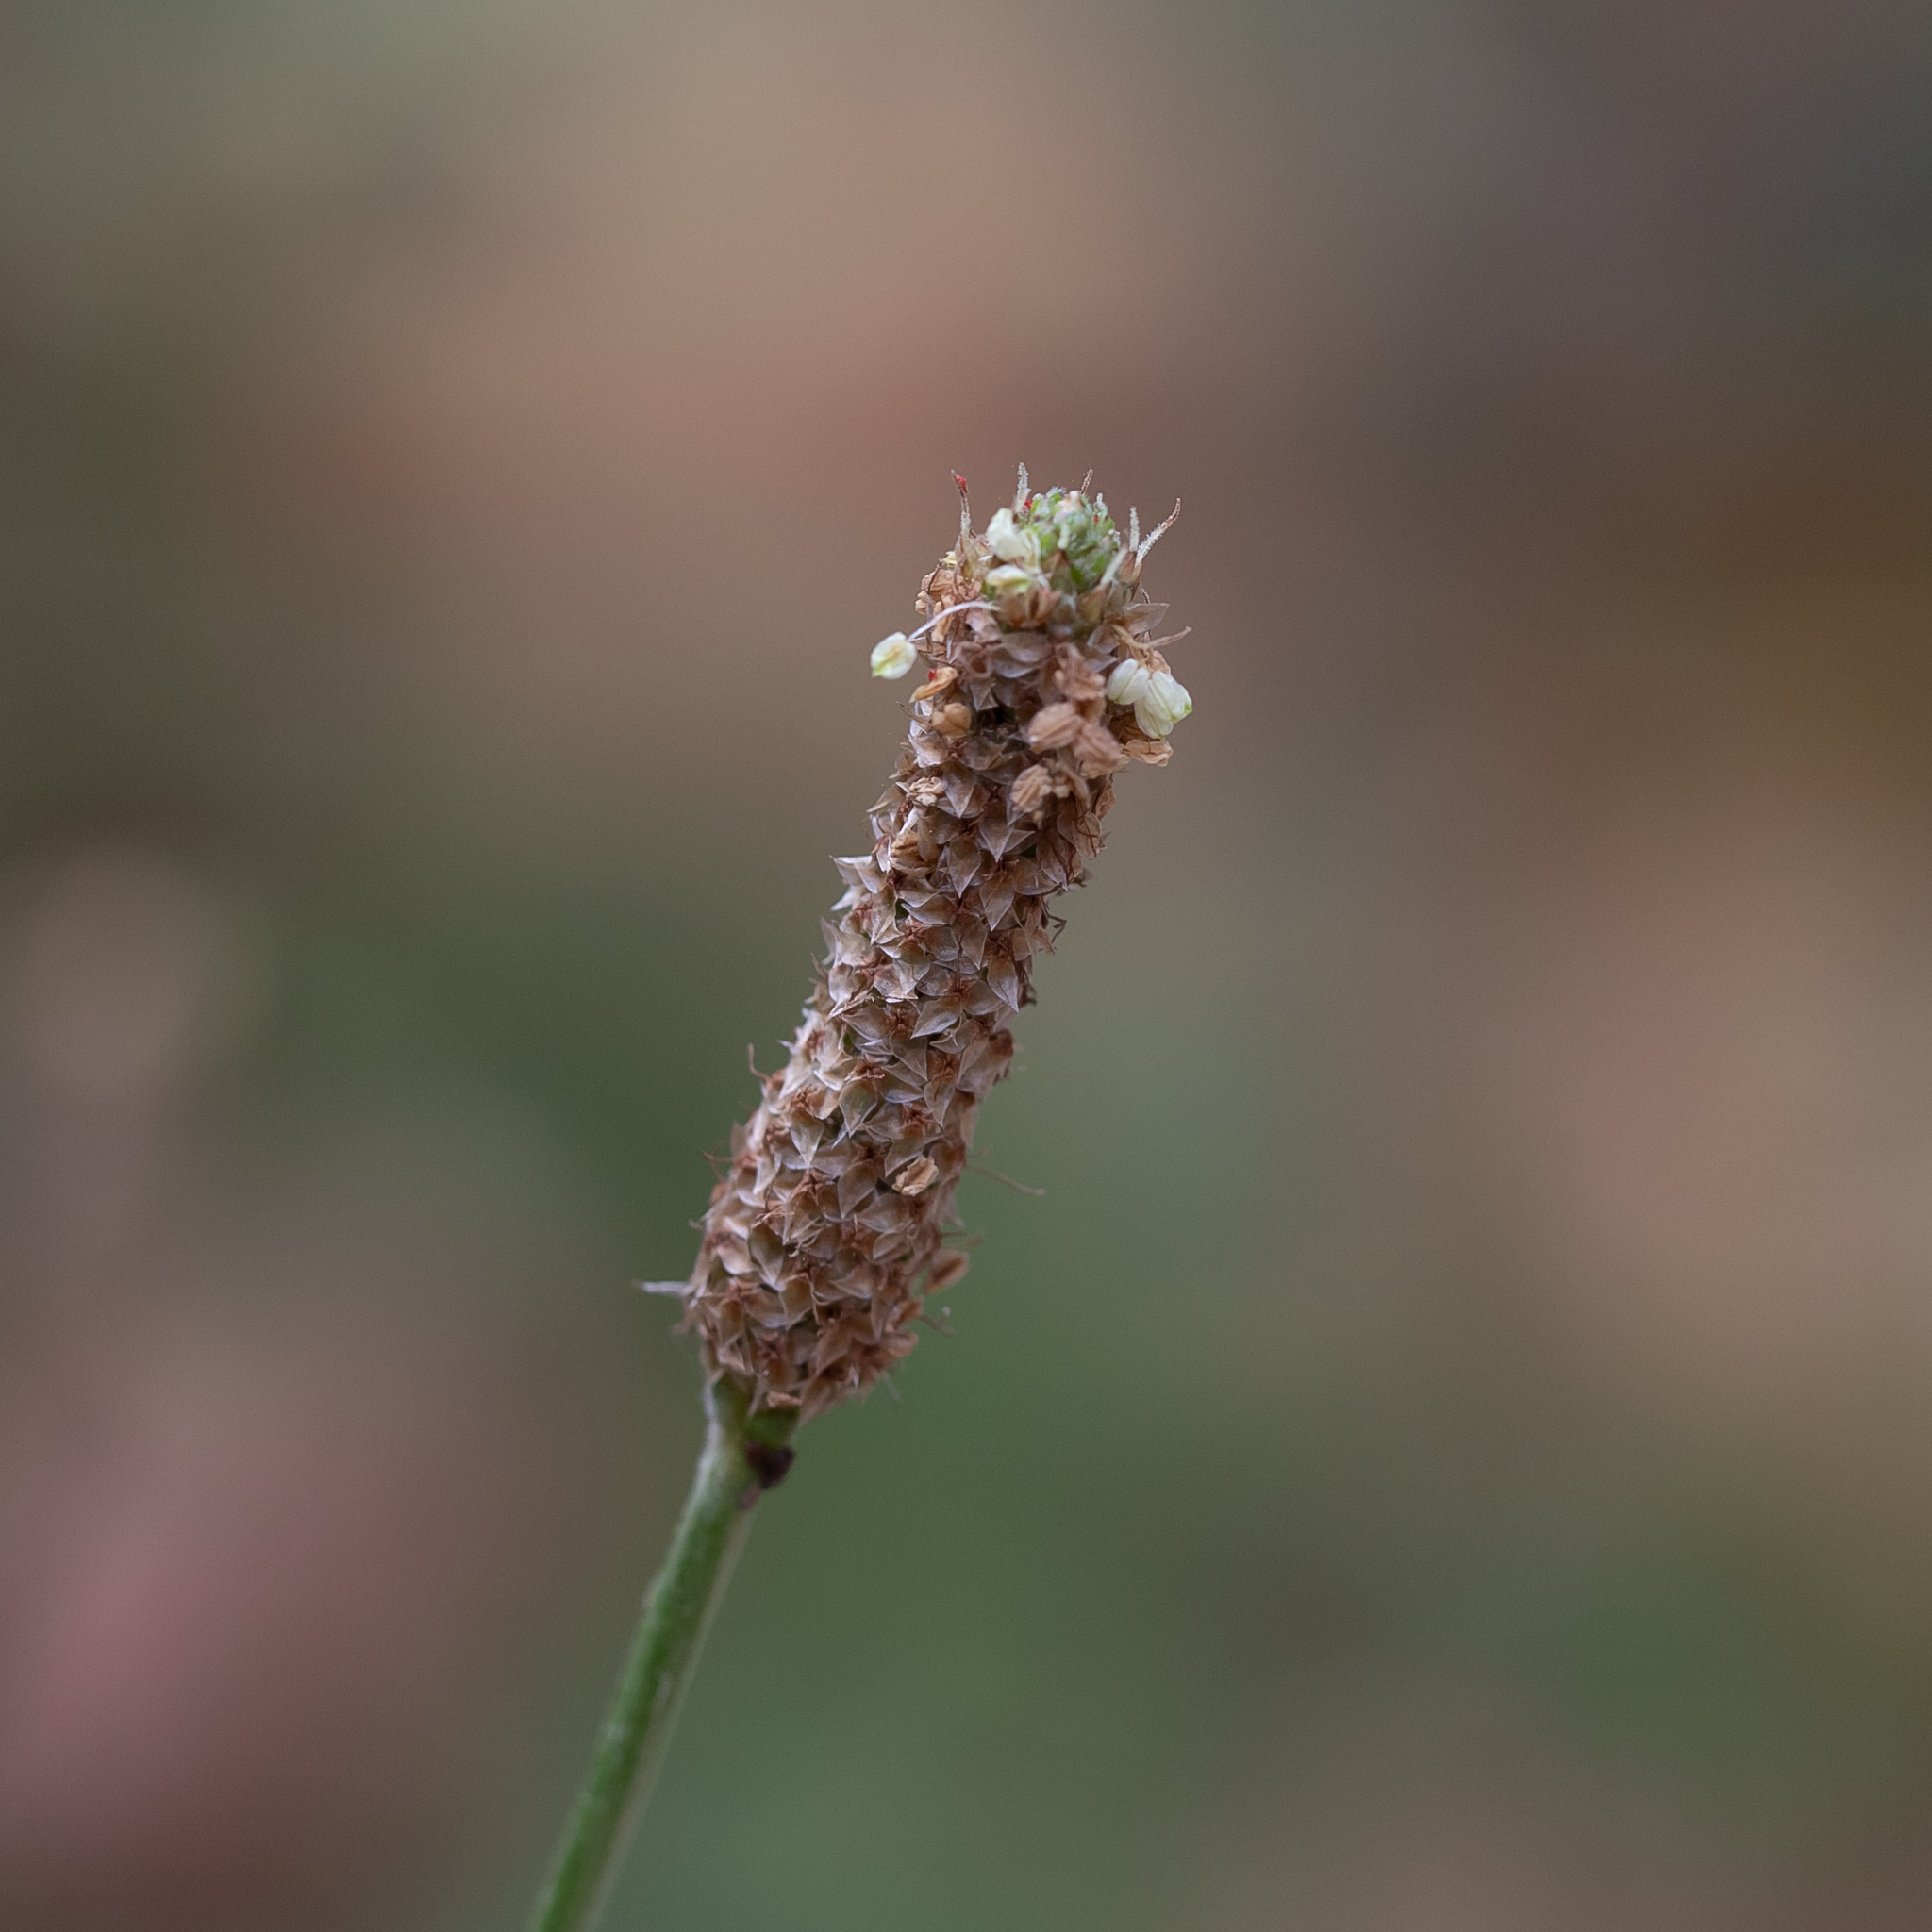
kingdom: Plantae
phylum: Tracheophyta
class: Magnoliopsida
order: Lamiales
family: Plantaginaceae
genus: Plantago
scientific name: Plantago lanceolata
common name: Ribwort plantain
